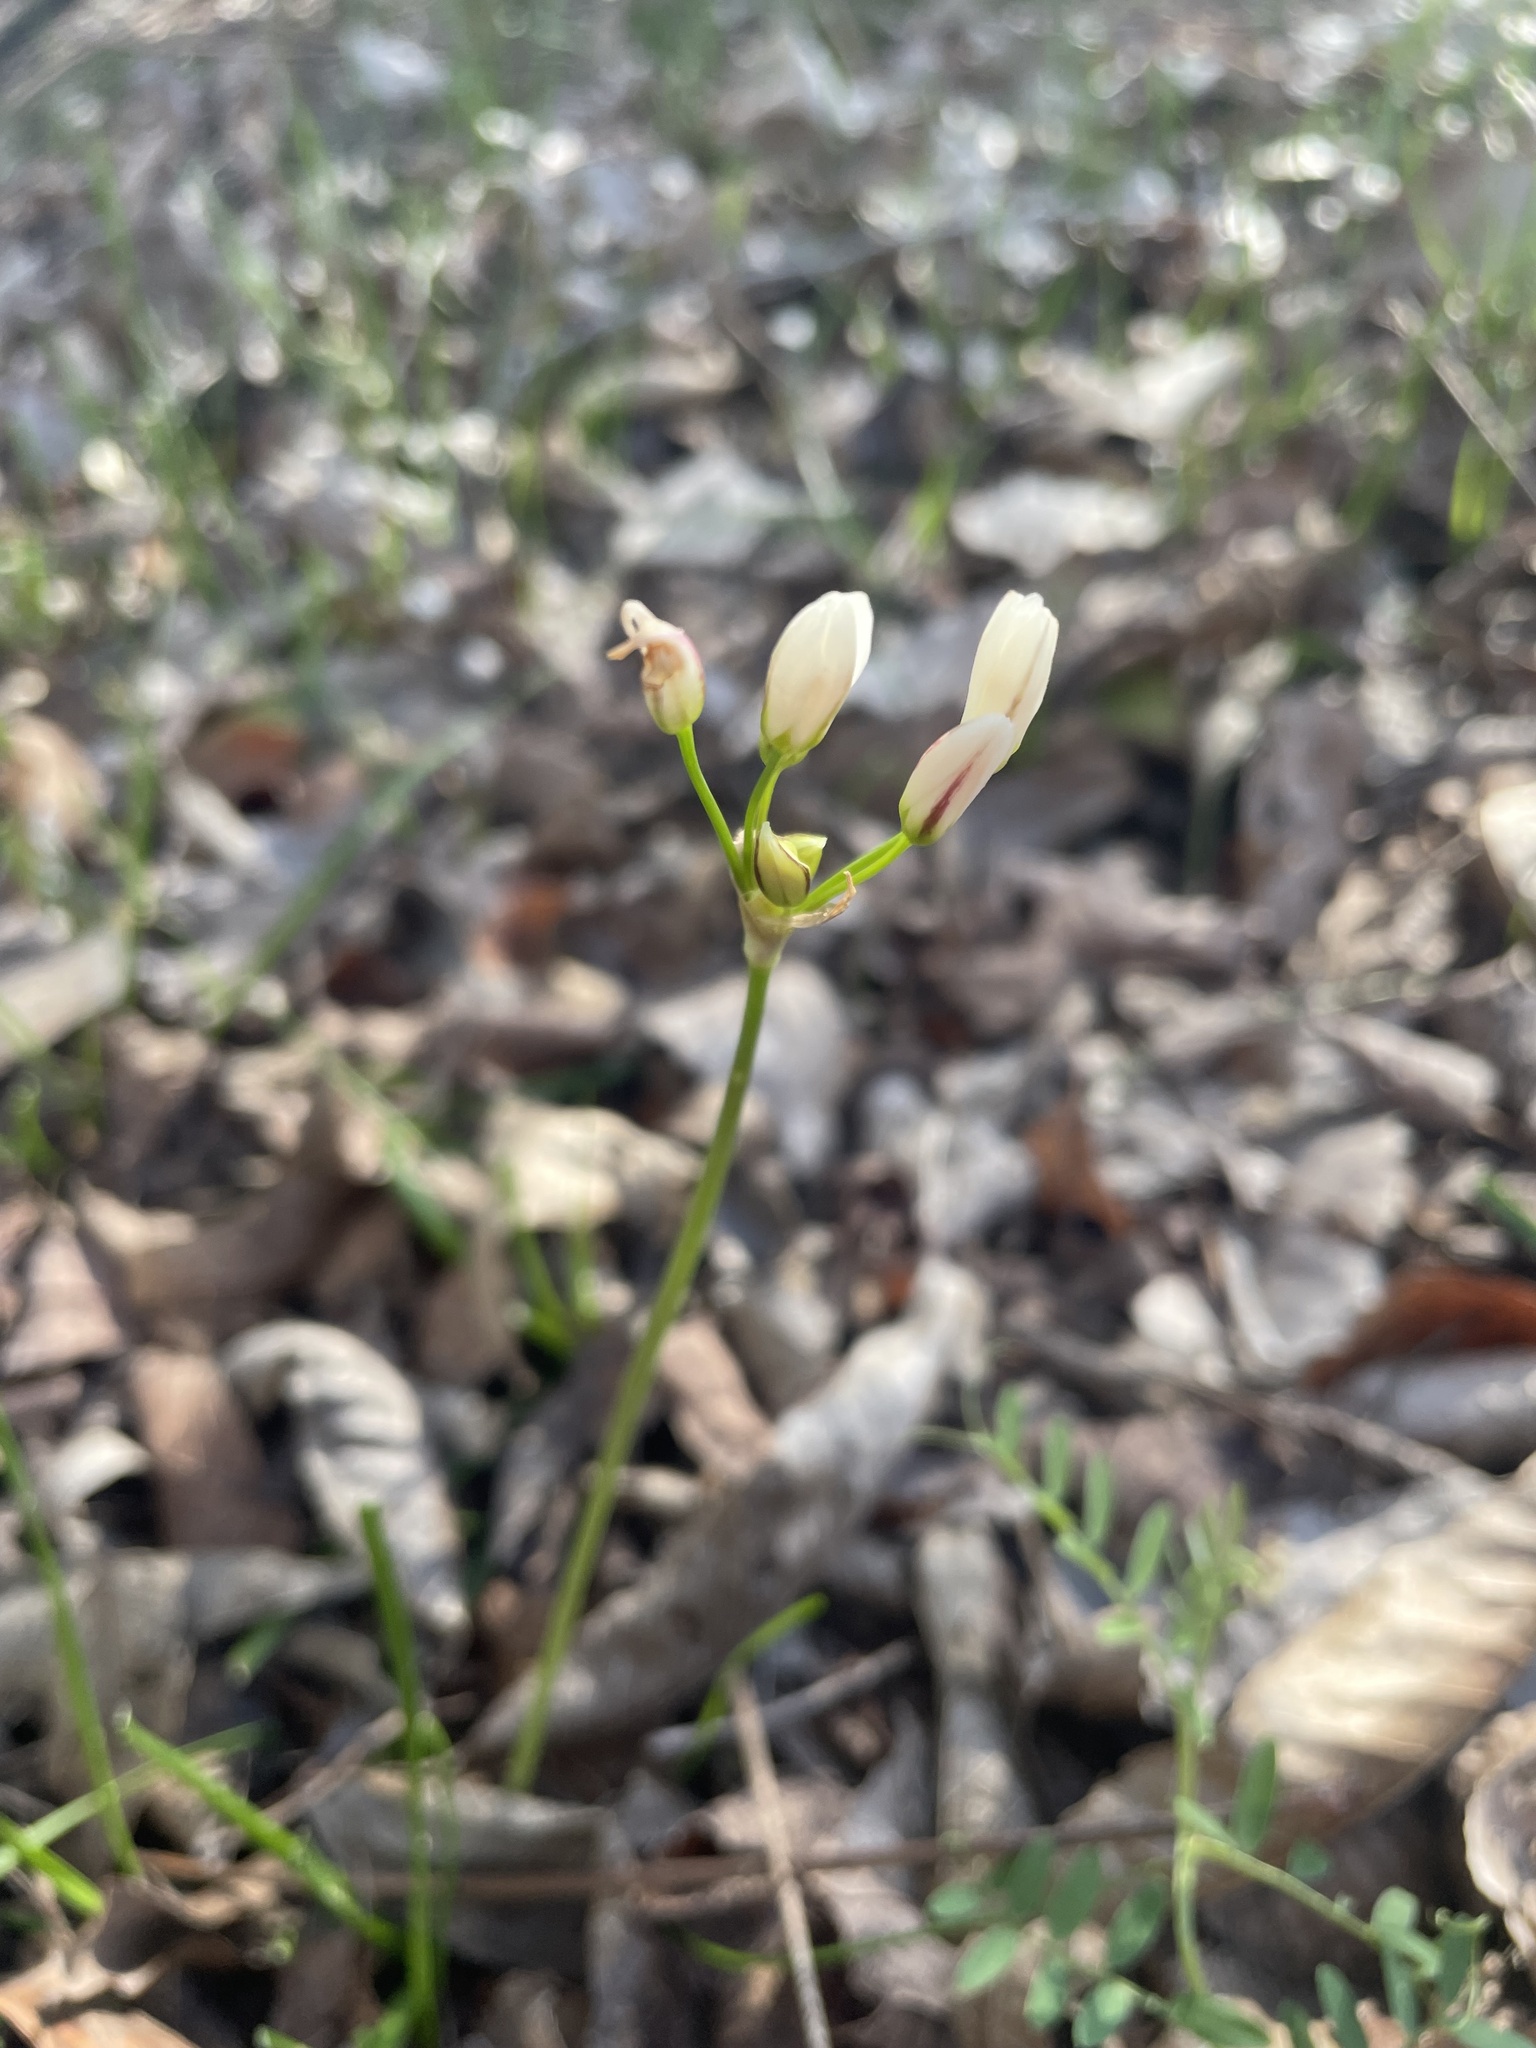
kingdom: Plantae
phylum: Tracheophyta
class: Liliopsida
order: Asparagales
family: Amaryllidaceae
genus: Nothoscordum
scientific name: Nothoscordum bivalve
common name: Crow-poison
